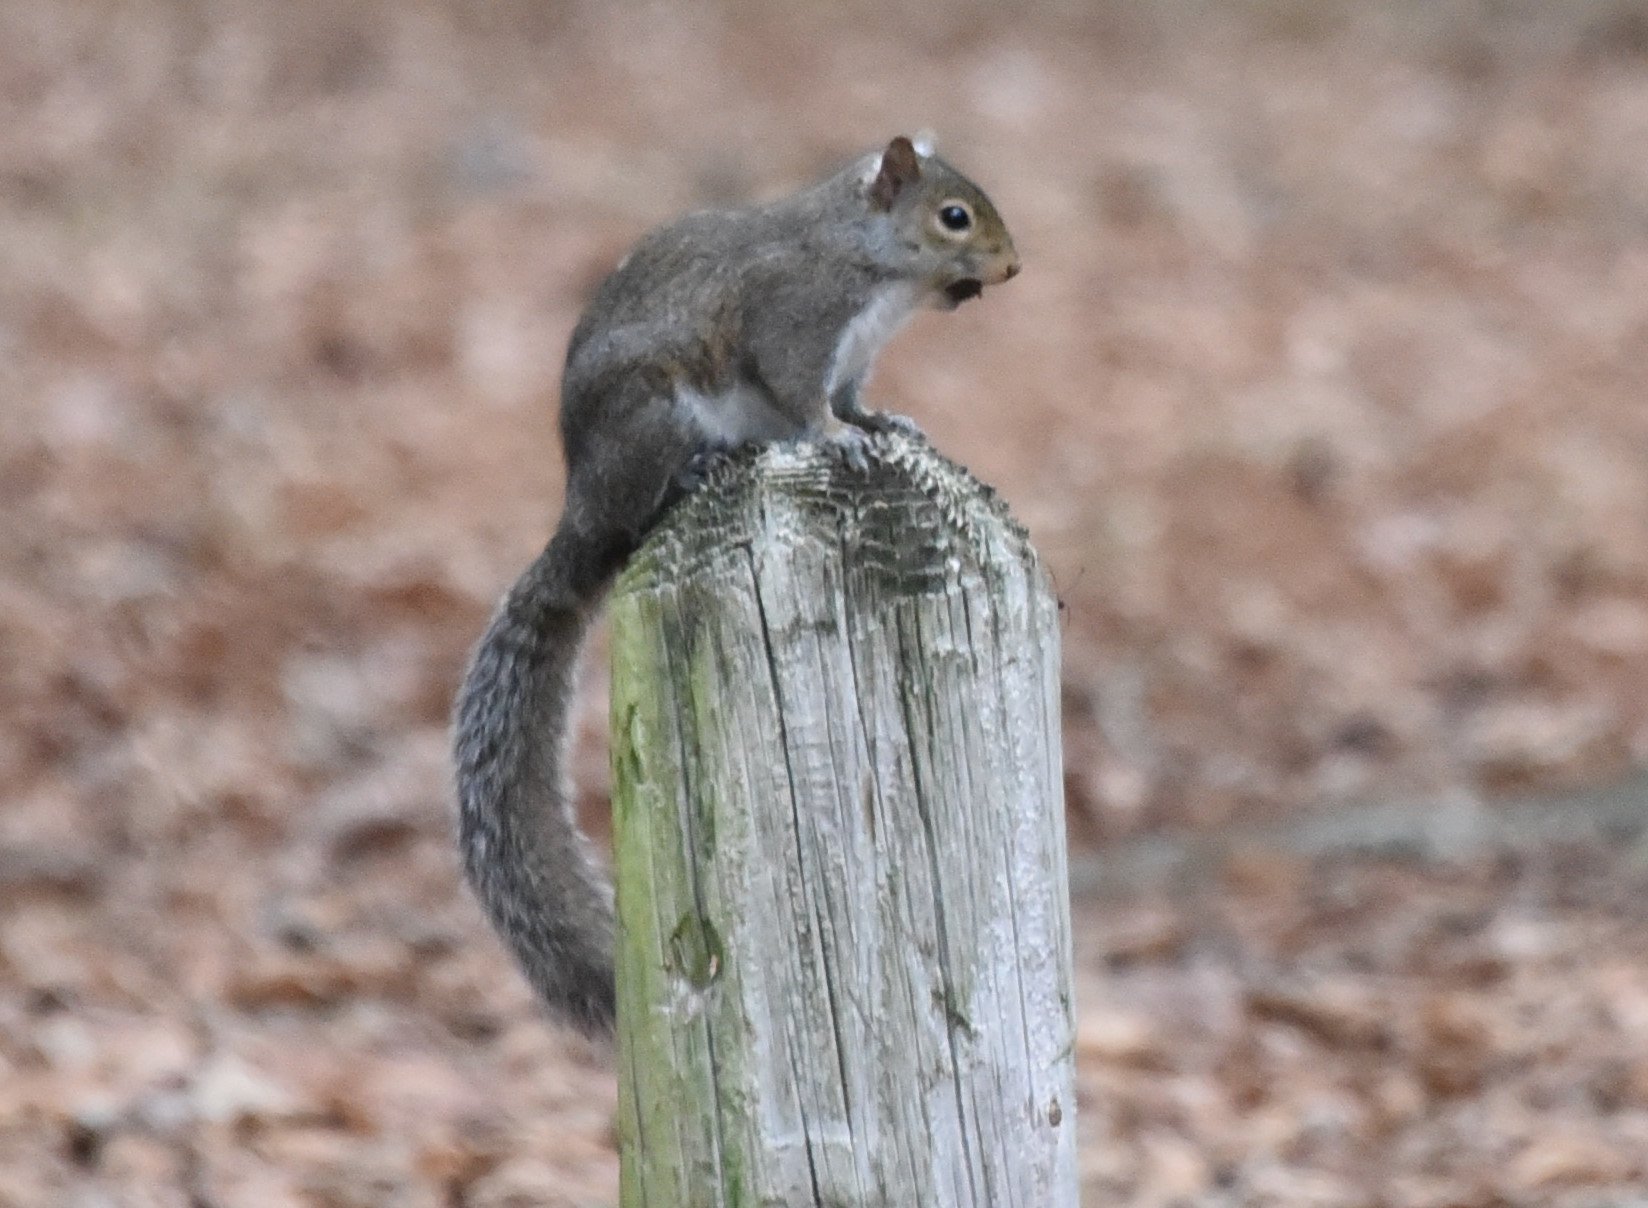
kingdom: Animalia
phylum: Chordata
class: Mammalia
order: Rodentia
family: Sciuridae
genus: Sciurus
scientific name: Sciurus carolinensis
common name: Eastern gray squirrel
